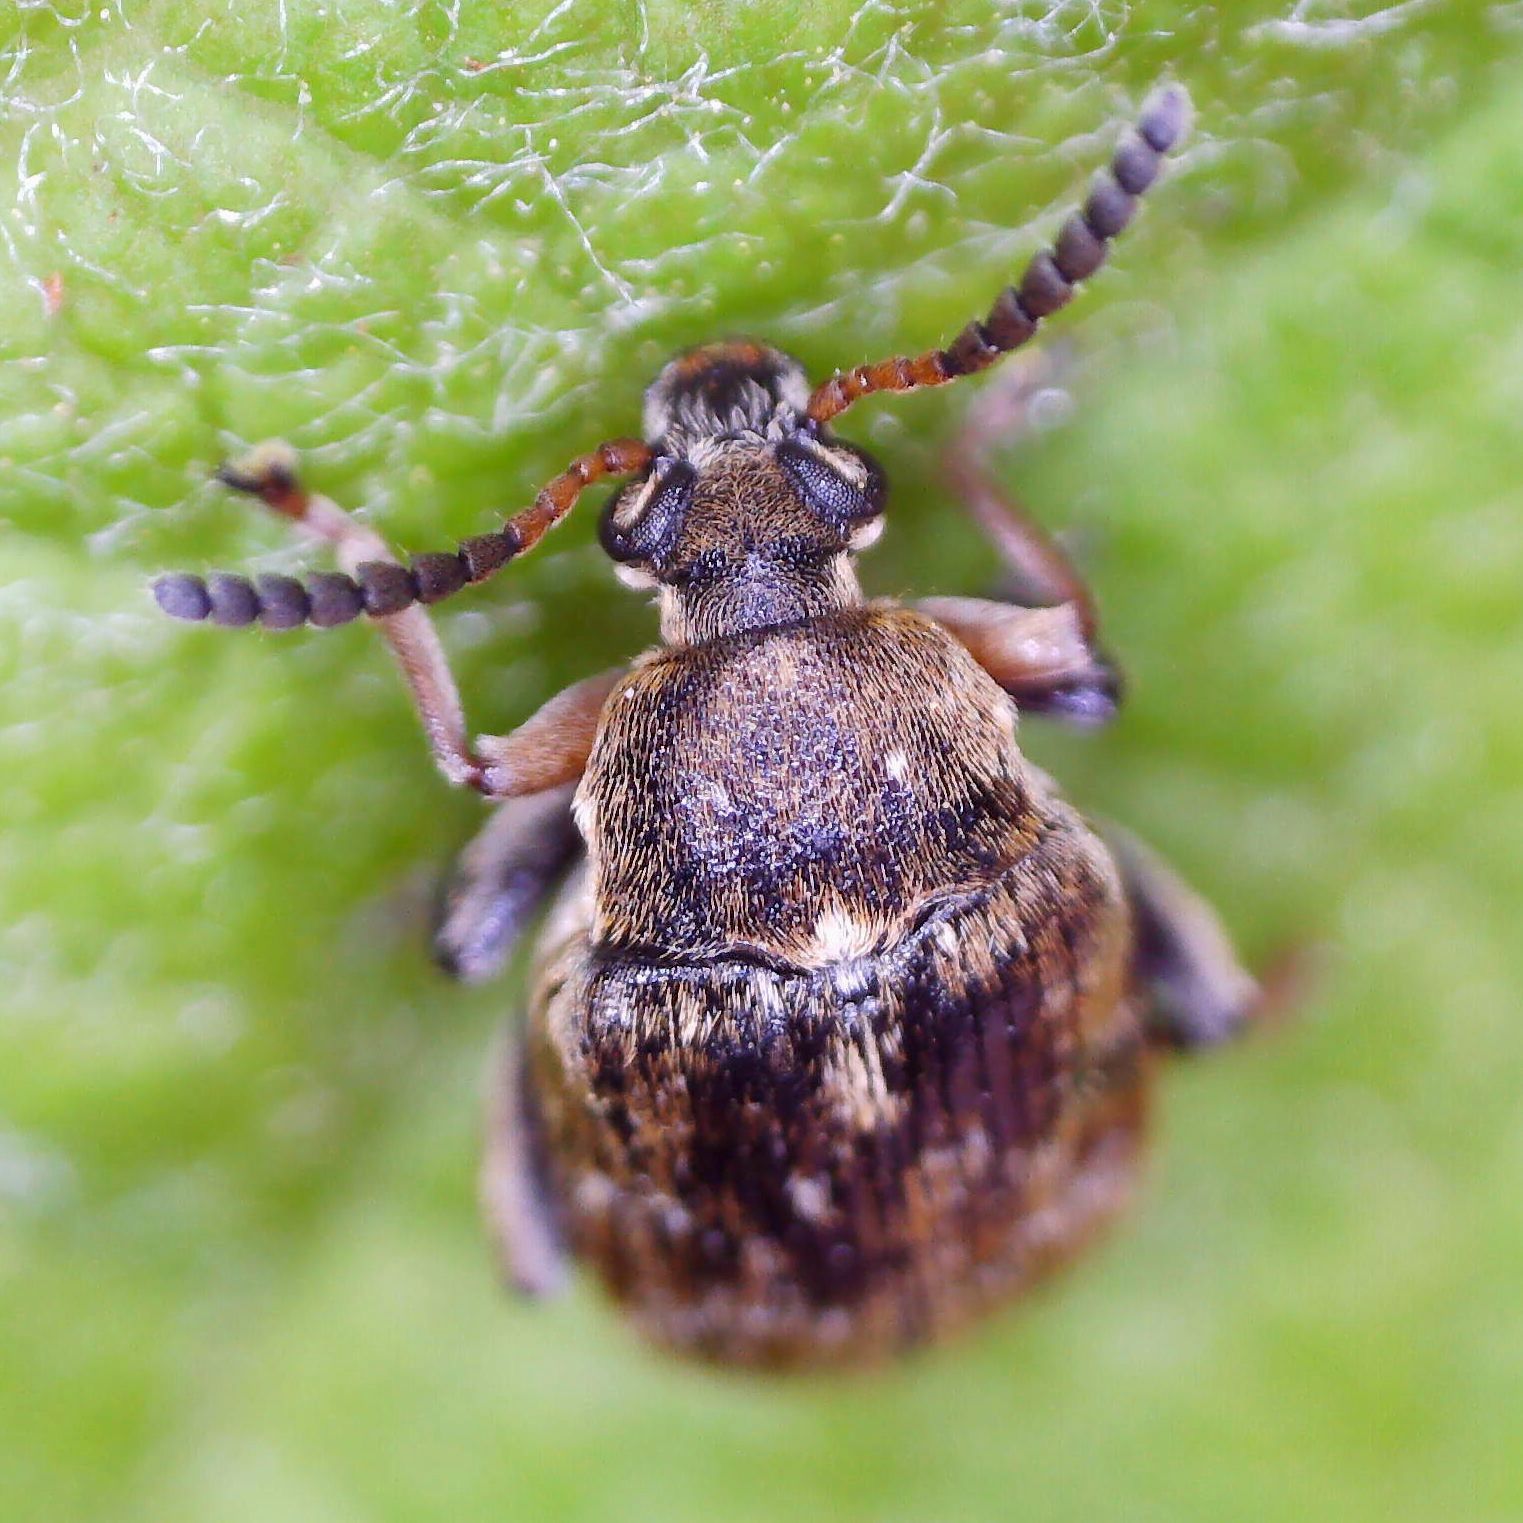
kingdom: Animalia
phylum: Arthropoda
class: Insecta
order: Coleoptera
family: Chrysomelidae
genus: Bruchus
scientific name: Bruchus rufimanus
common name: Broadbean weevil
